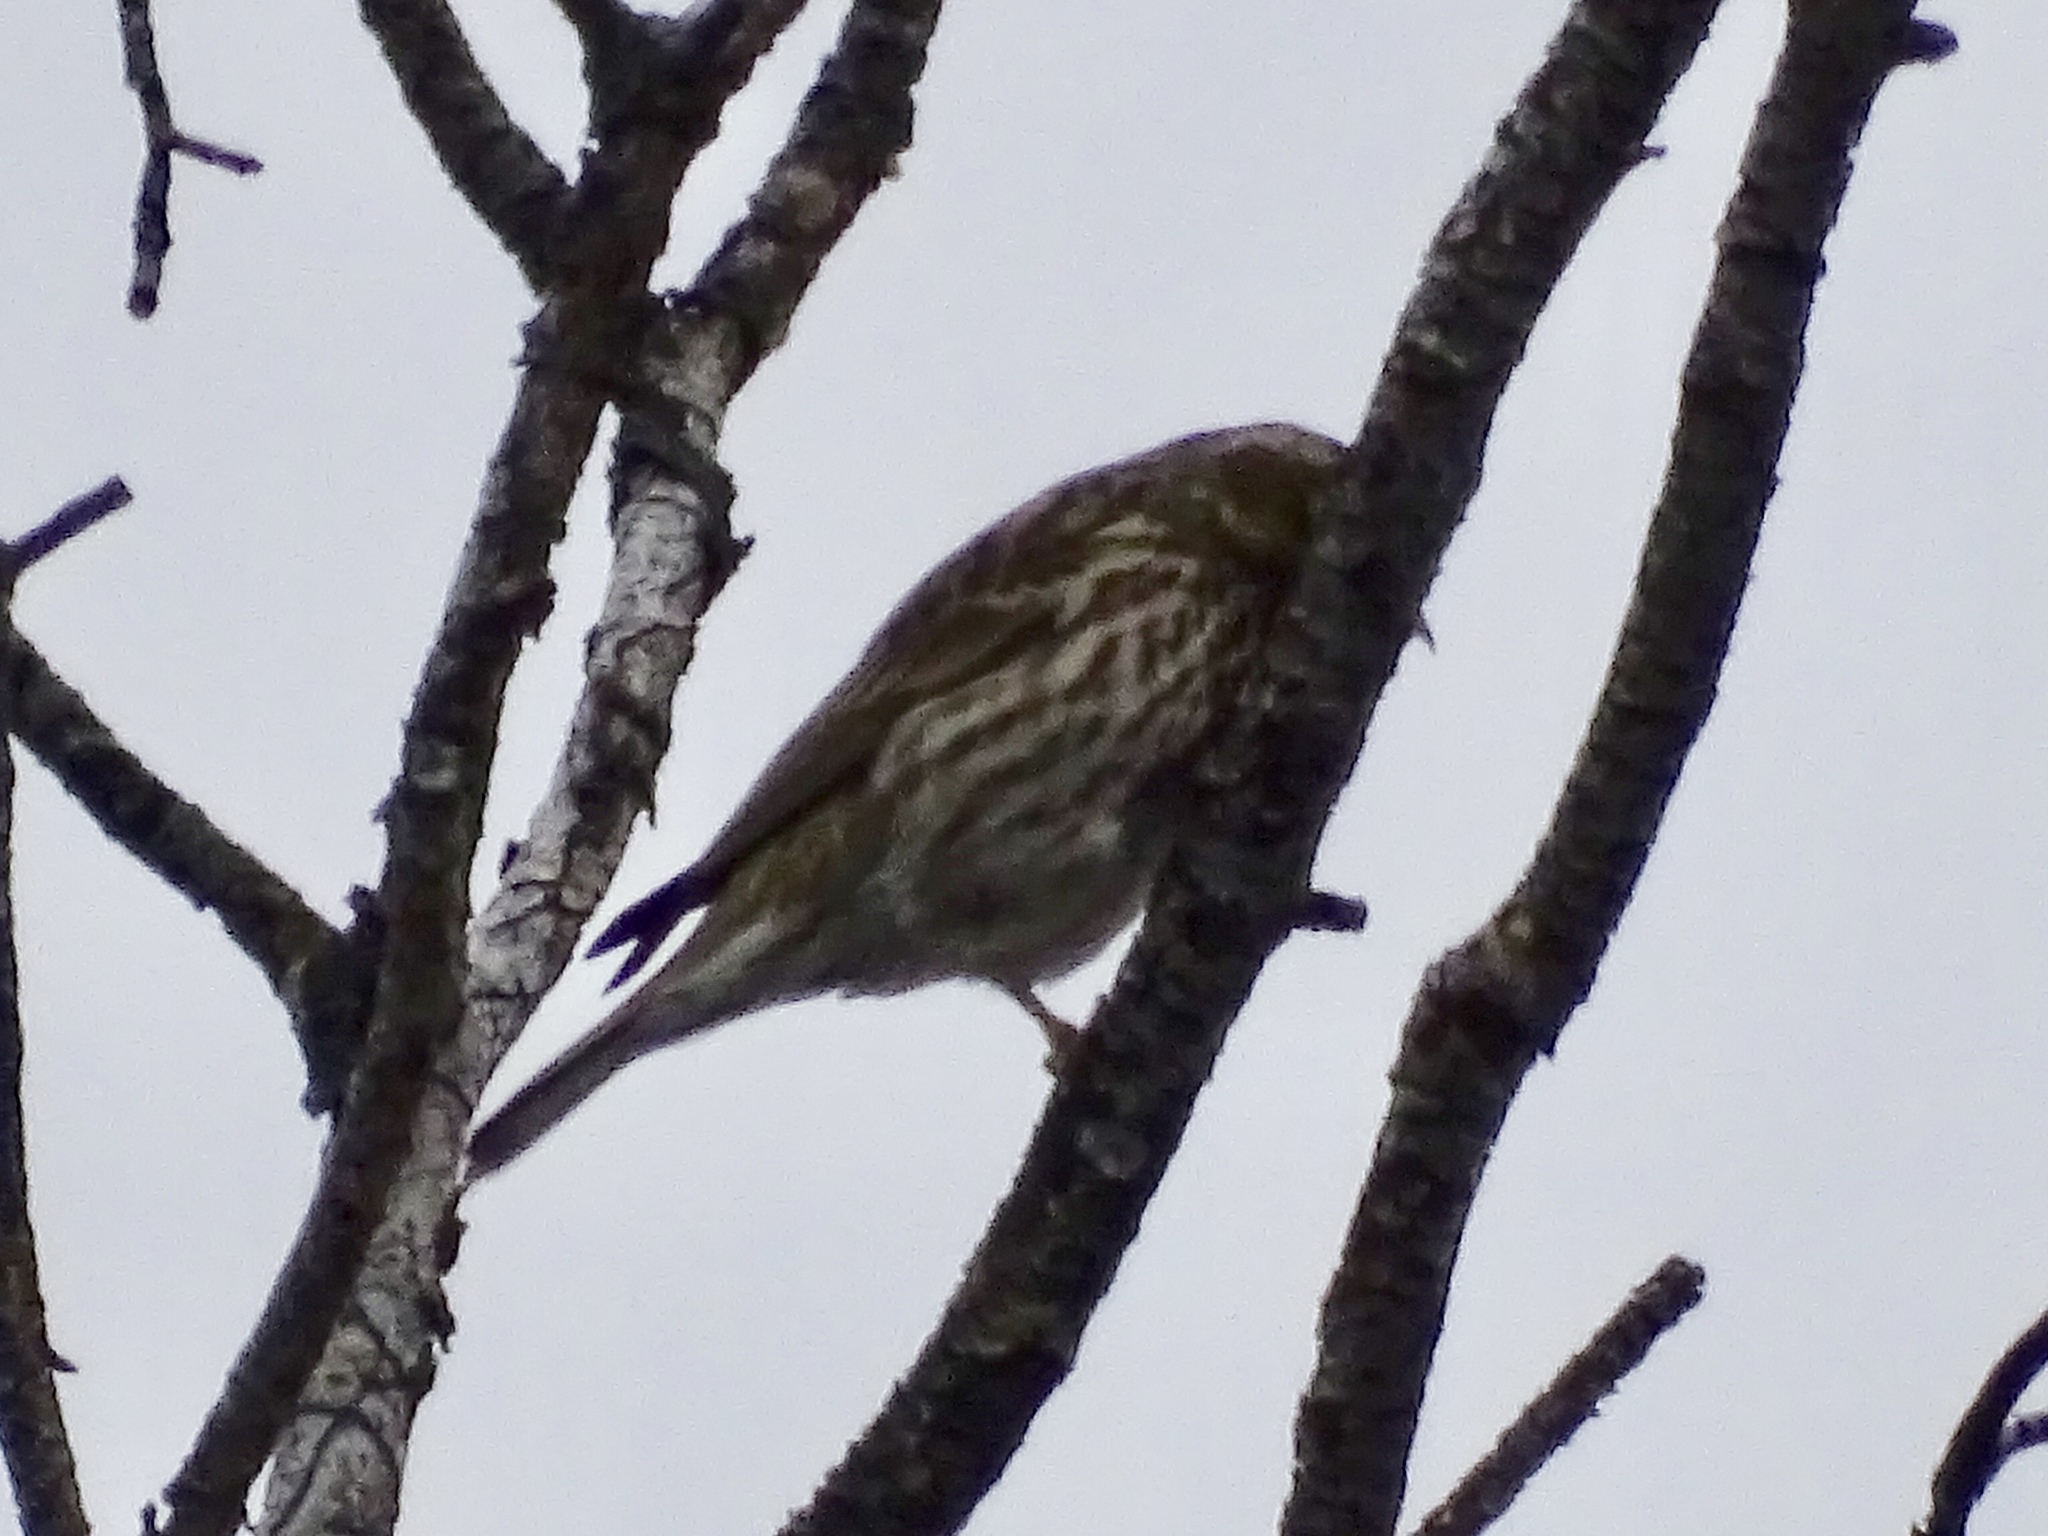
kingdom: Animalia
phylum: Chordata
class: Aves
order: Passeriformes
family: Fringillidae
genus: Haemorhous
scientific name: Haemorhous cassinii
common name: Cassin's finch
